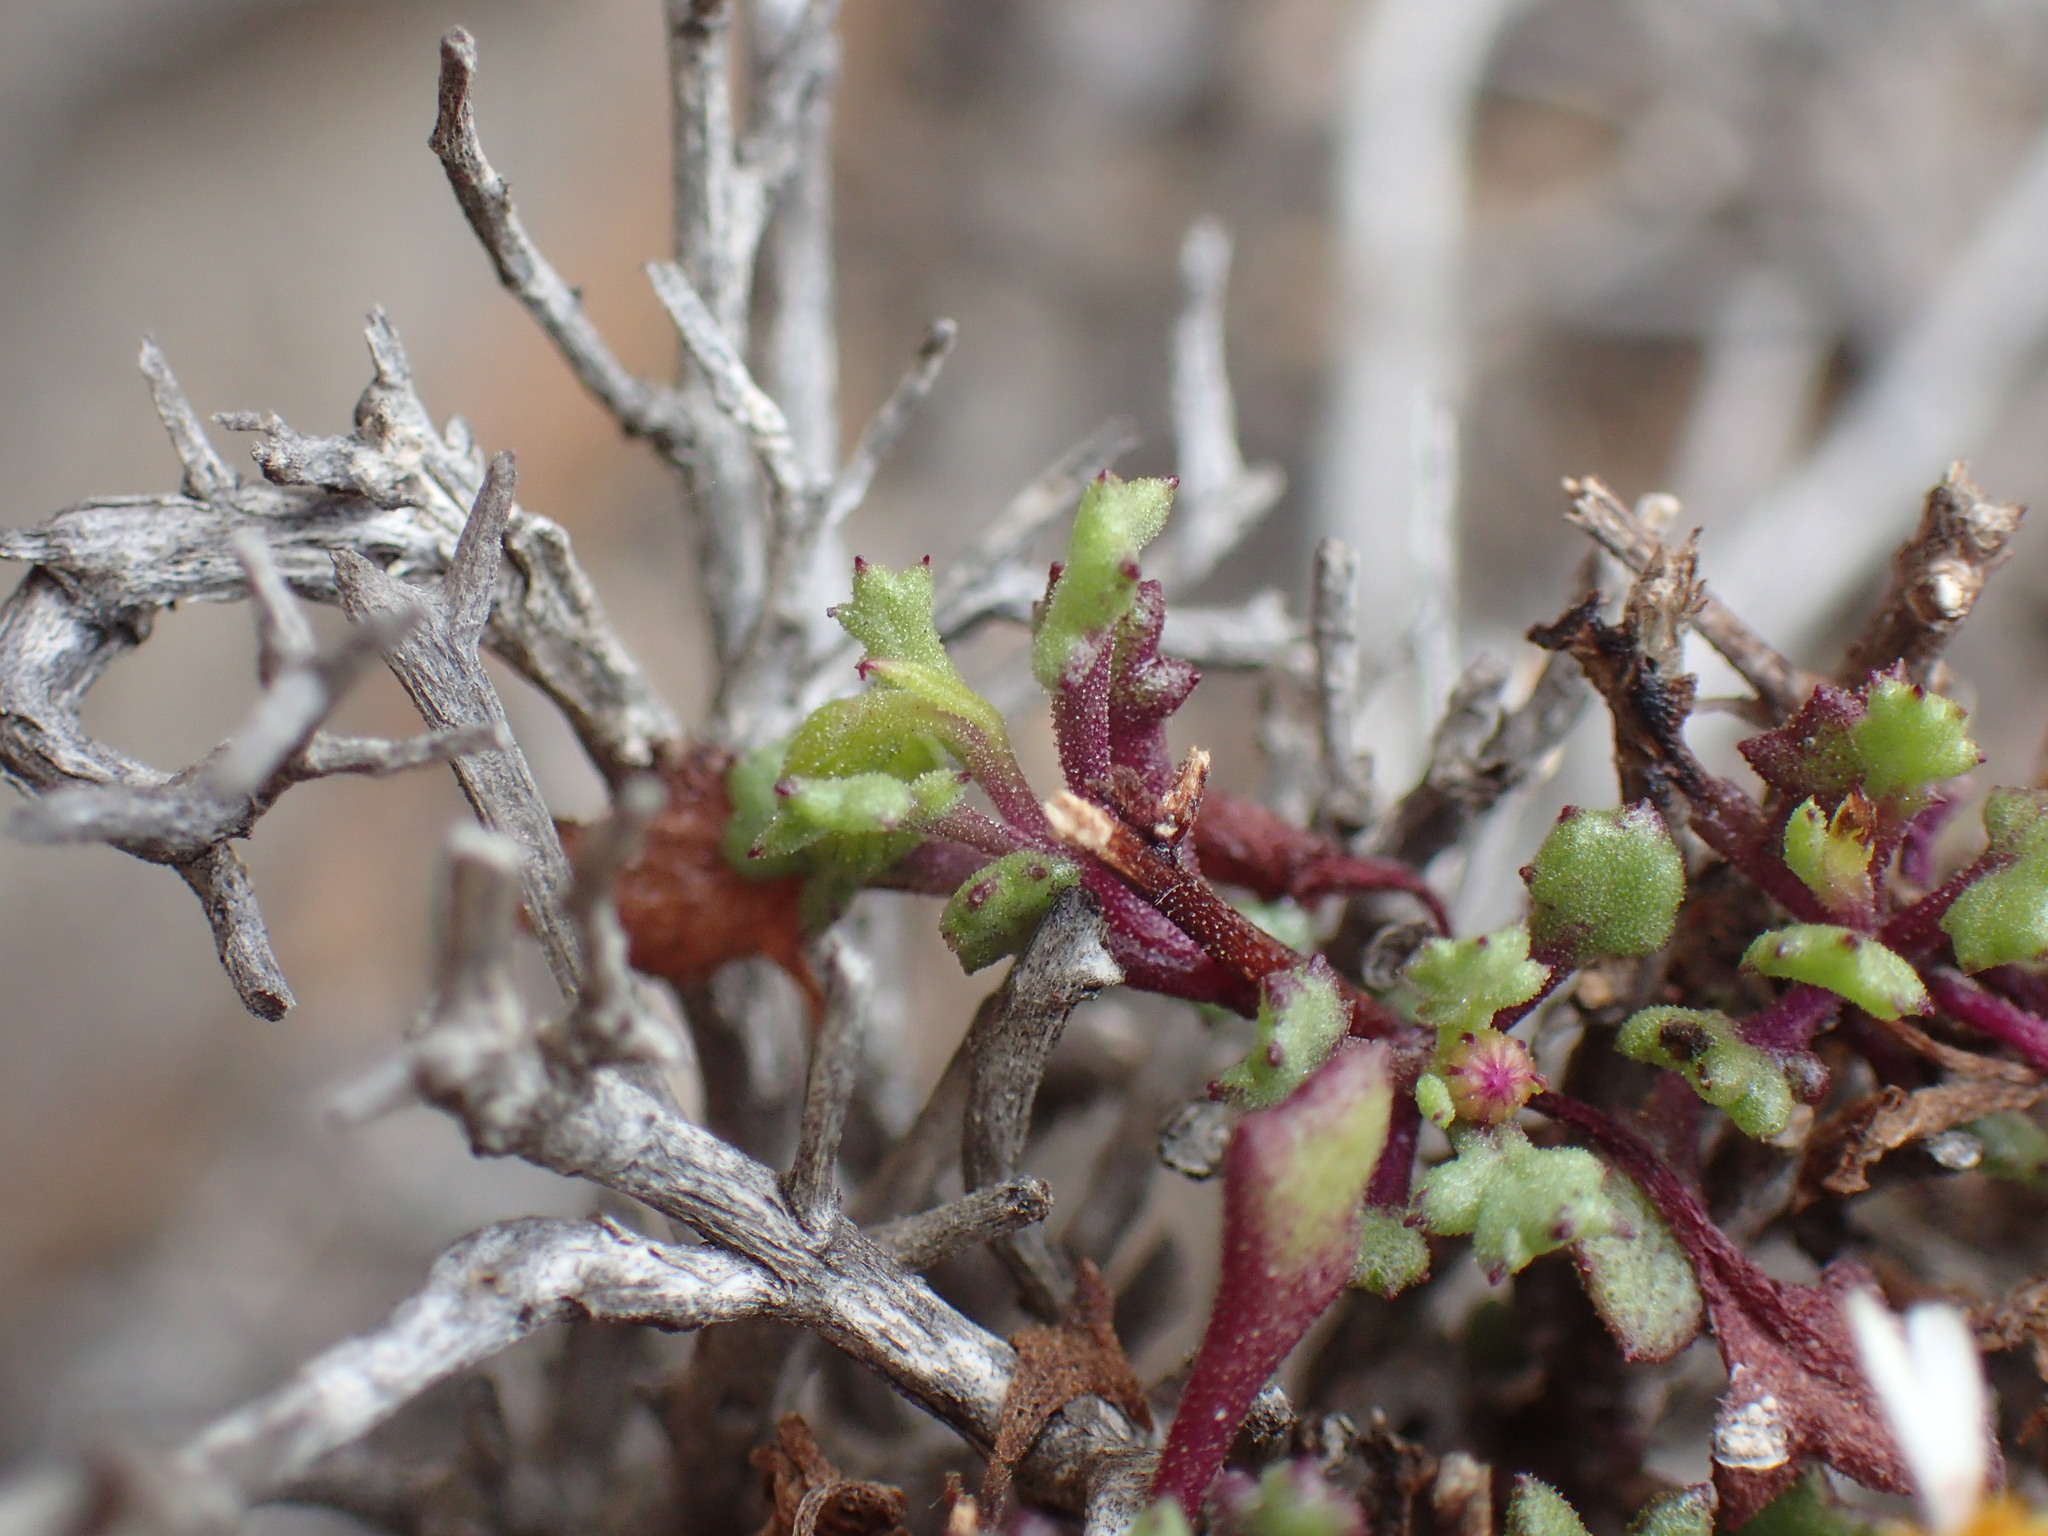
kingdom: Plantae
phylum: Tracheophyta
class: Magnoliopsida
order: Asterales
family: Asteraceae
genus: Senecio
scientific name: Senecio tortuosus
